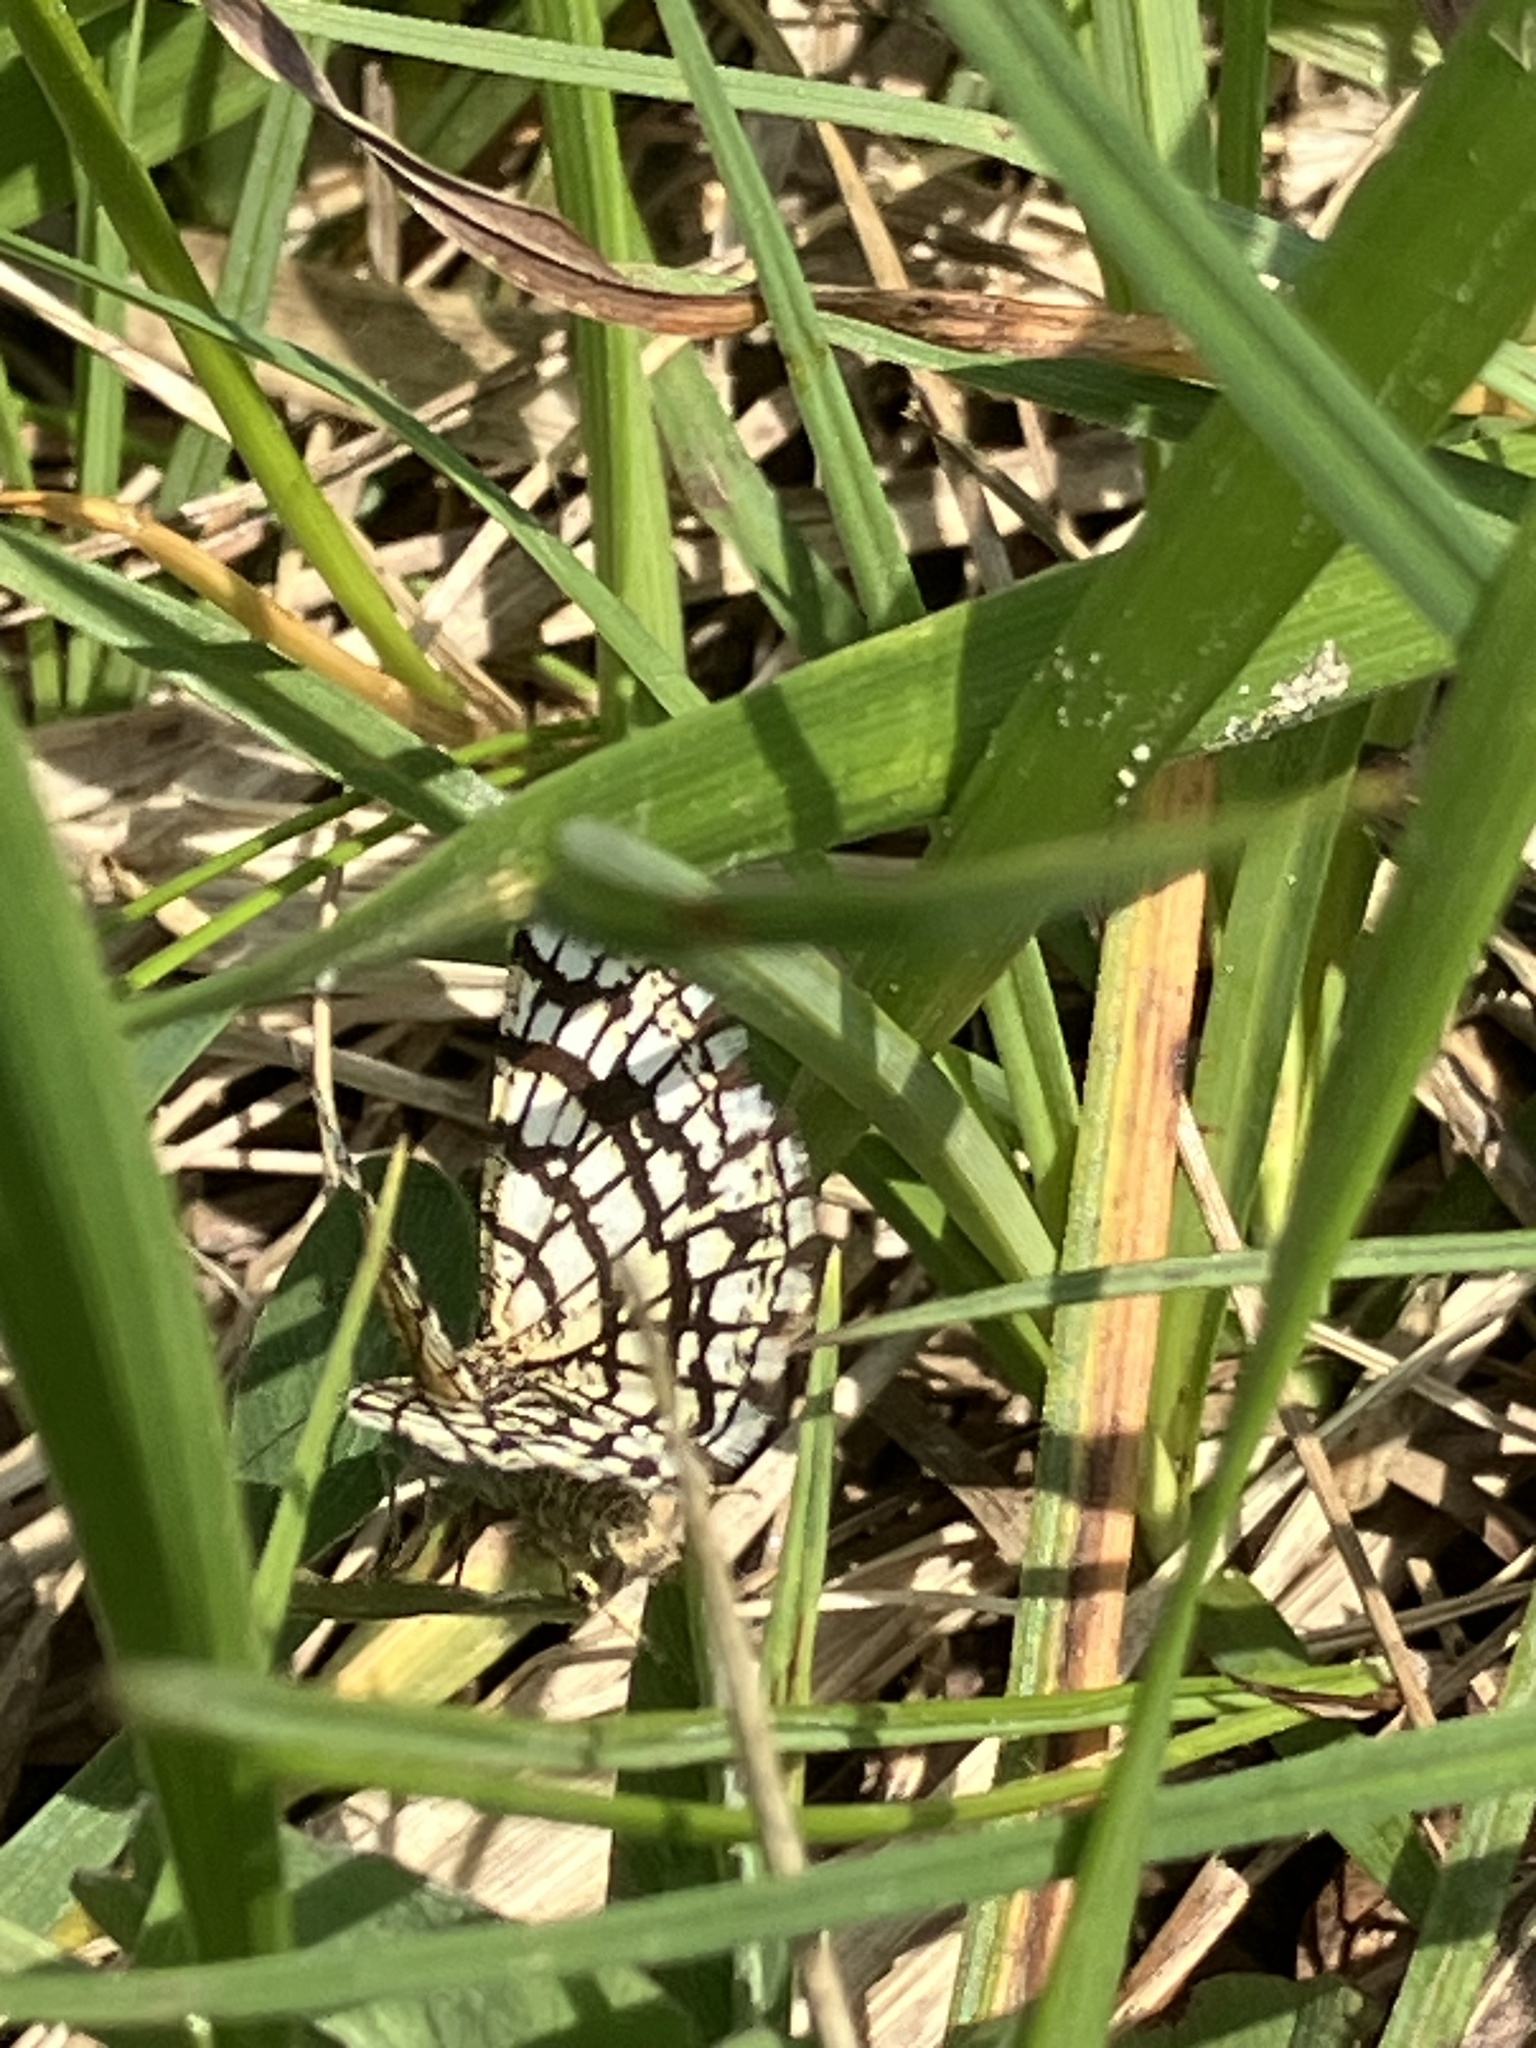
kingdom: Animalia
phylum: Arthropoda
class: Insecta
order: Lepidoptera
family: Geometridae
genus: Chiasmia
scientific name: Chiasmia clathrata
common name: Latticed heath
